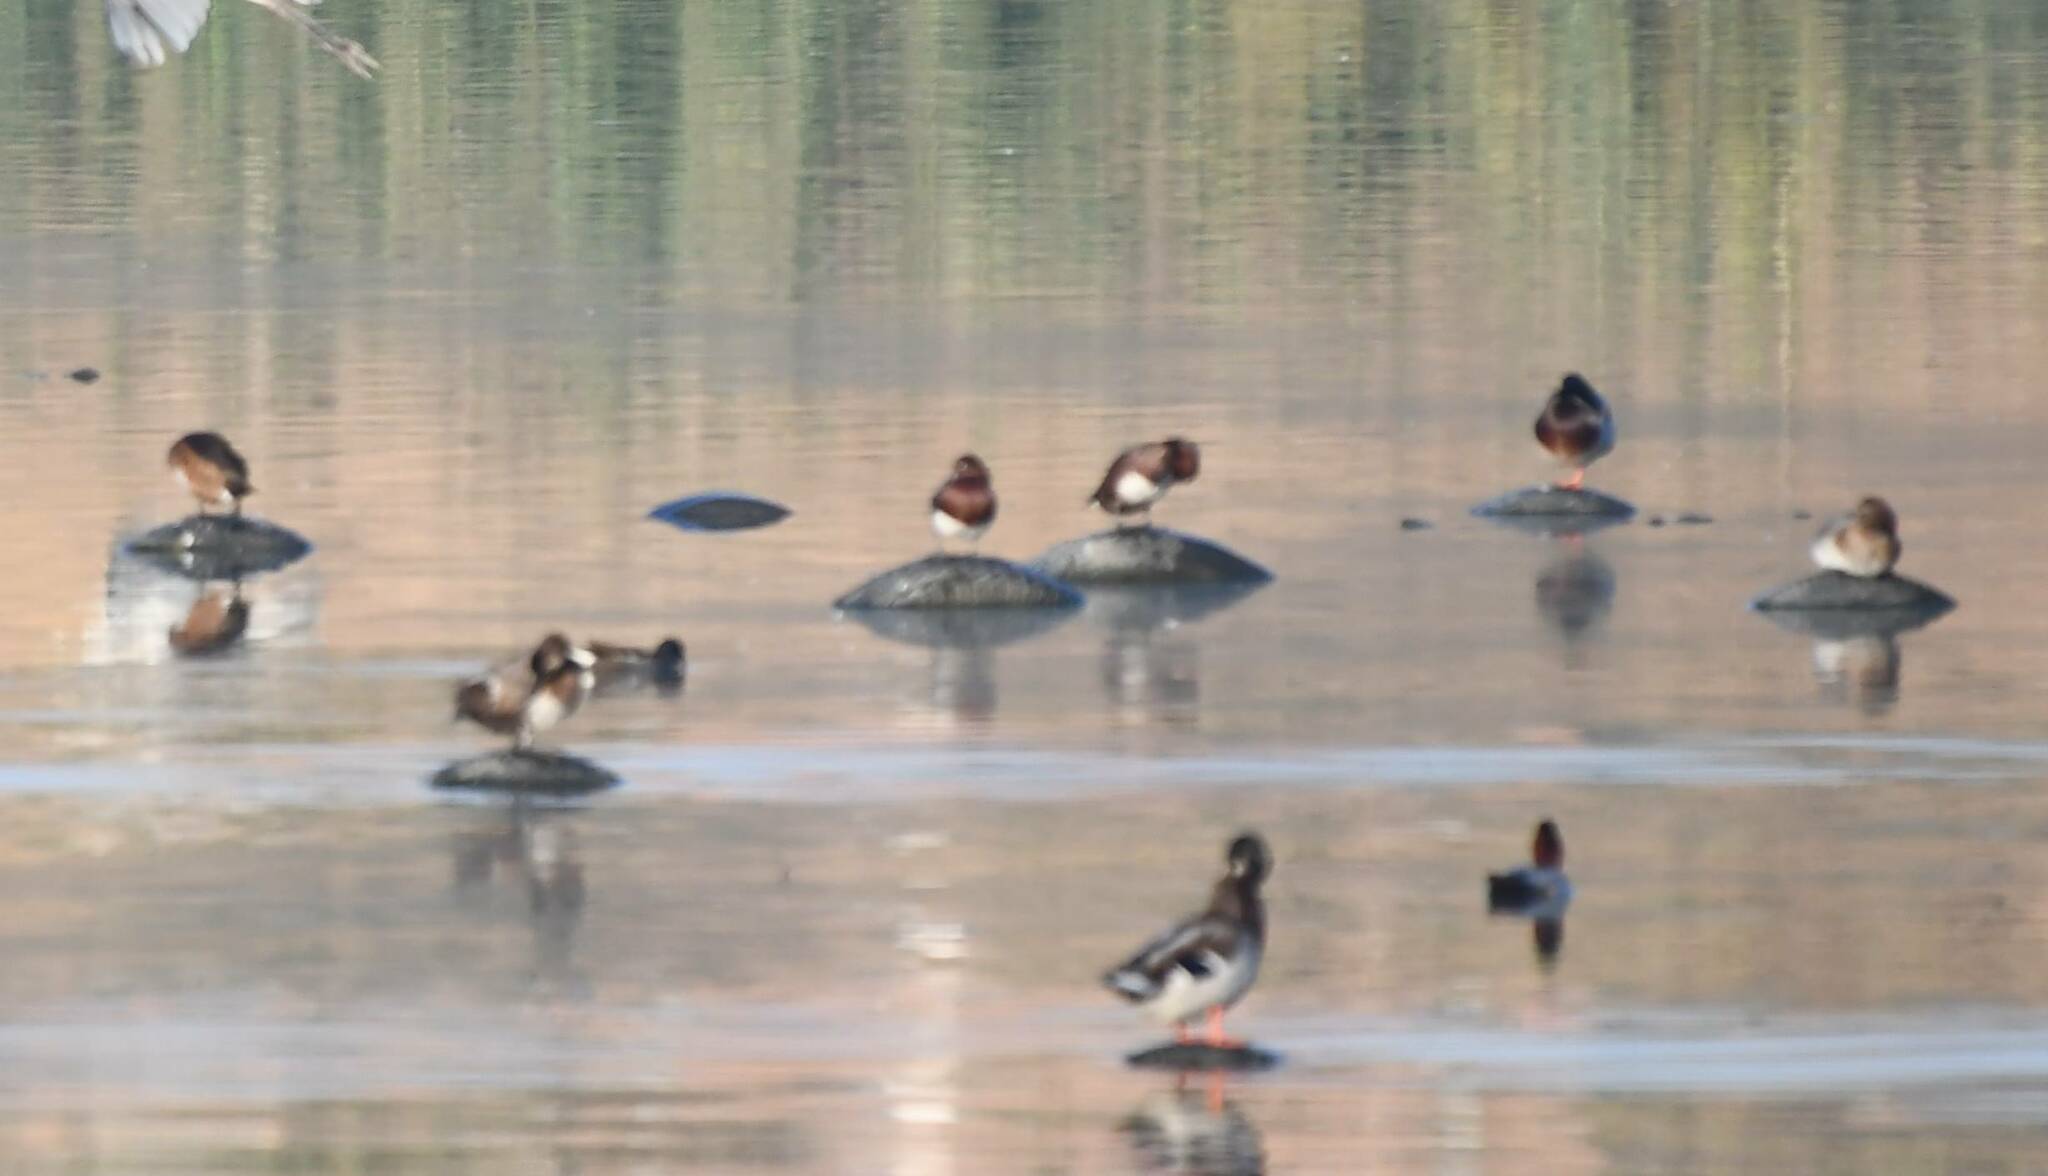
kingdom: Animalia
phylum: Chordata
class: Aves
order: Anseriformes
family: Anatidae
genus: Aythya
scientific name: Aythya nyroca
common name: Ferruginous duck
